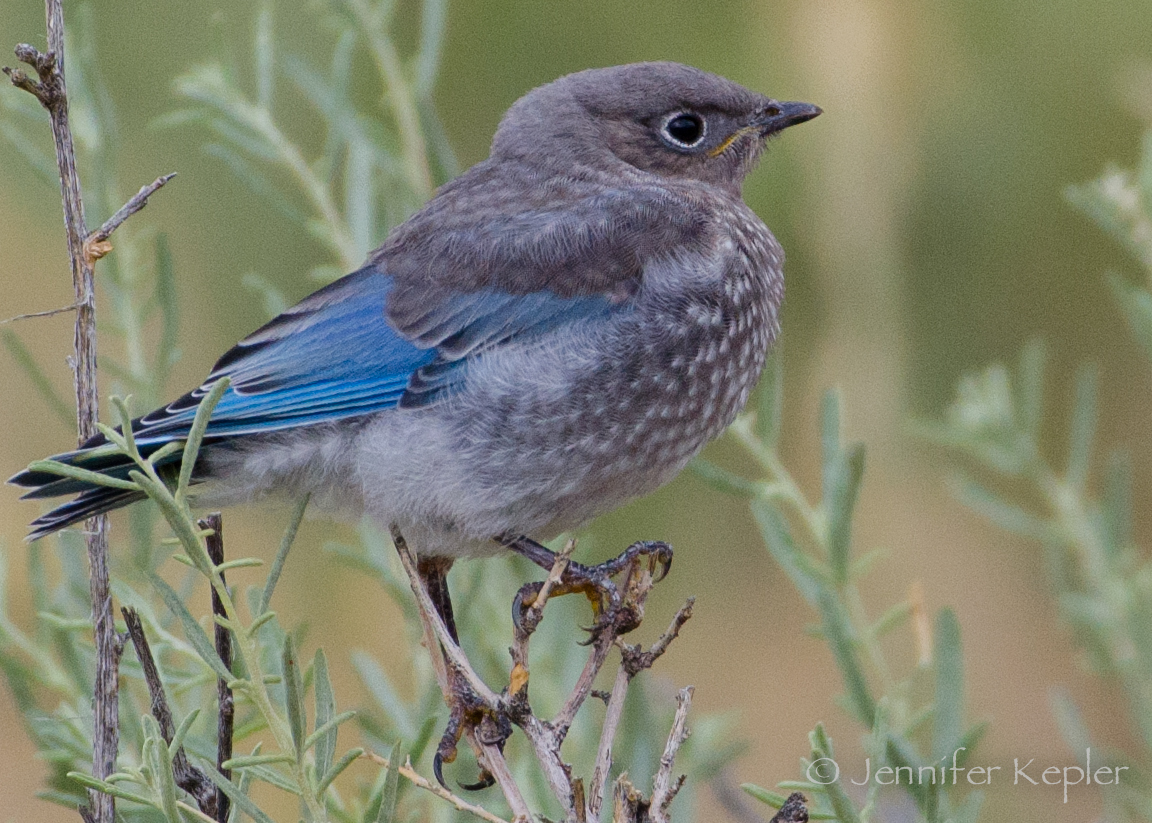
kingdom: Animalia
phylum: Chordata
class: Aves
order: Passeriformes
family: Turdidae
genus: Sialia
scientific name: Sialia mexicana
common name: Western bluebird
